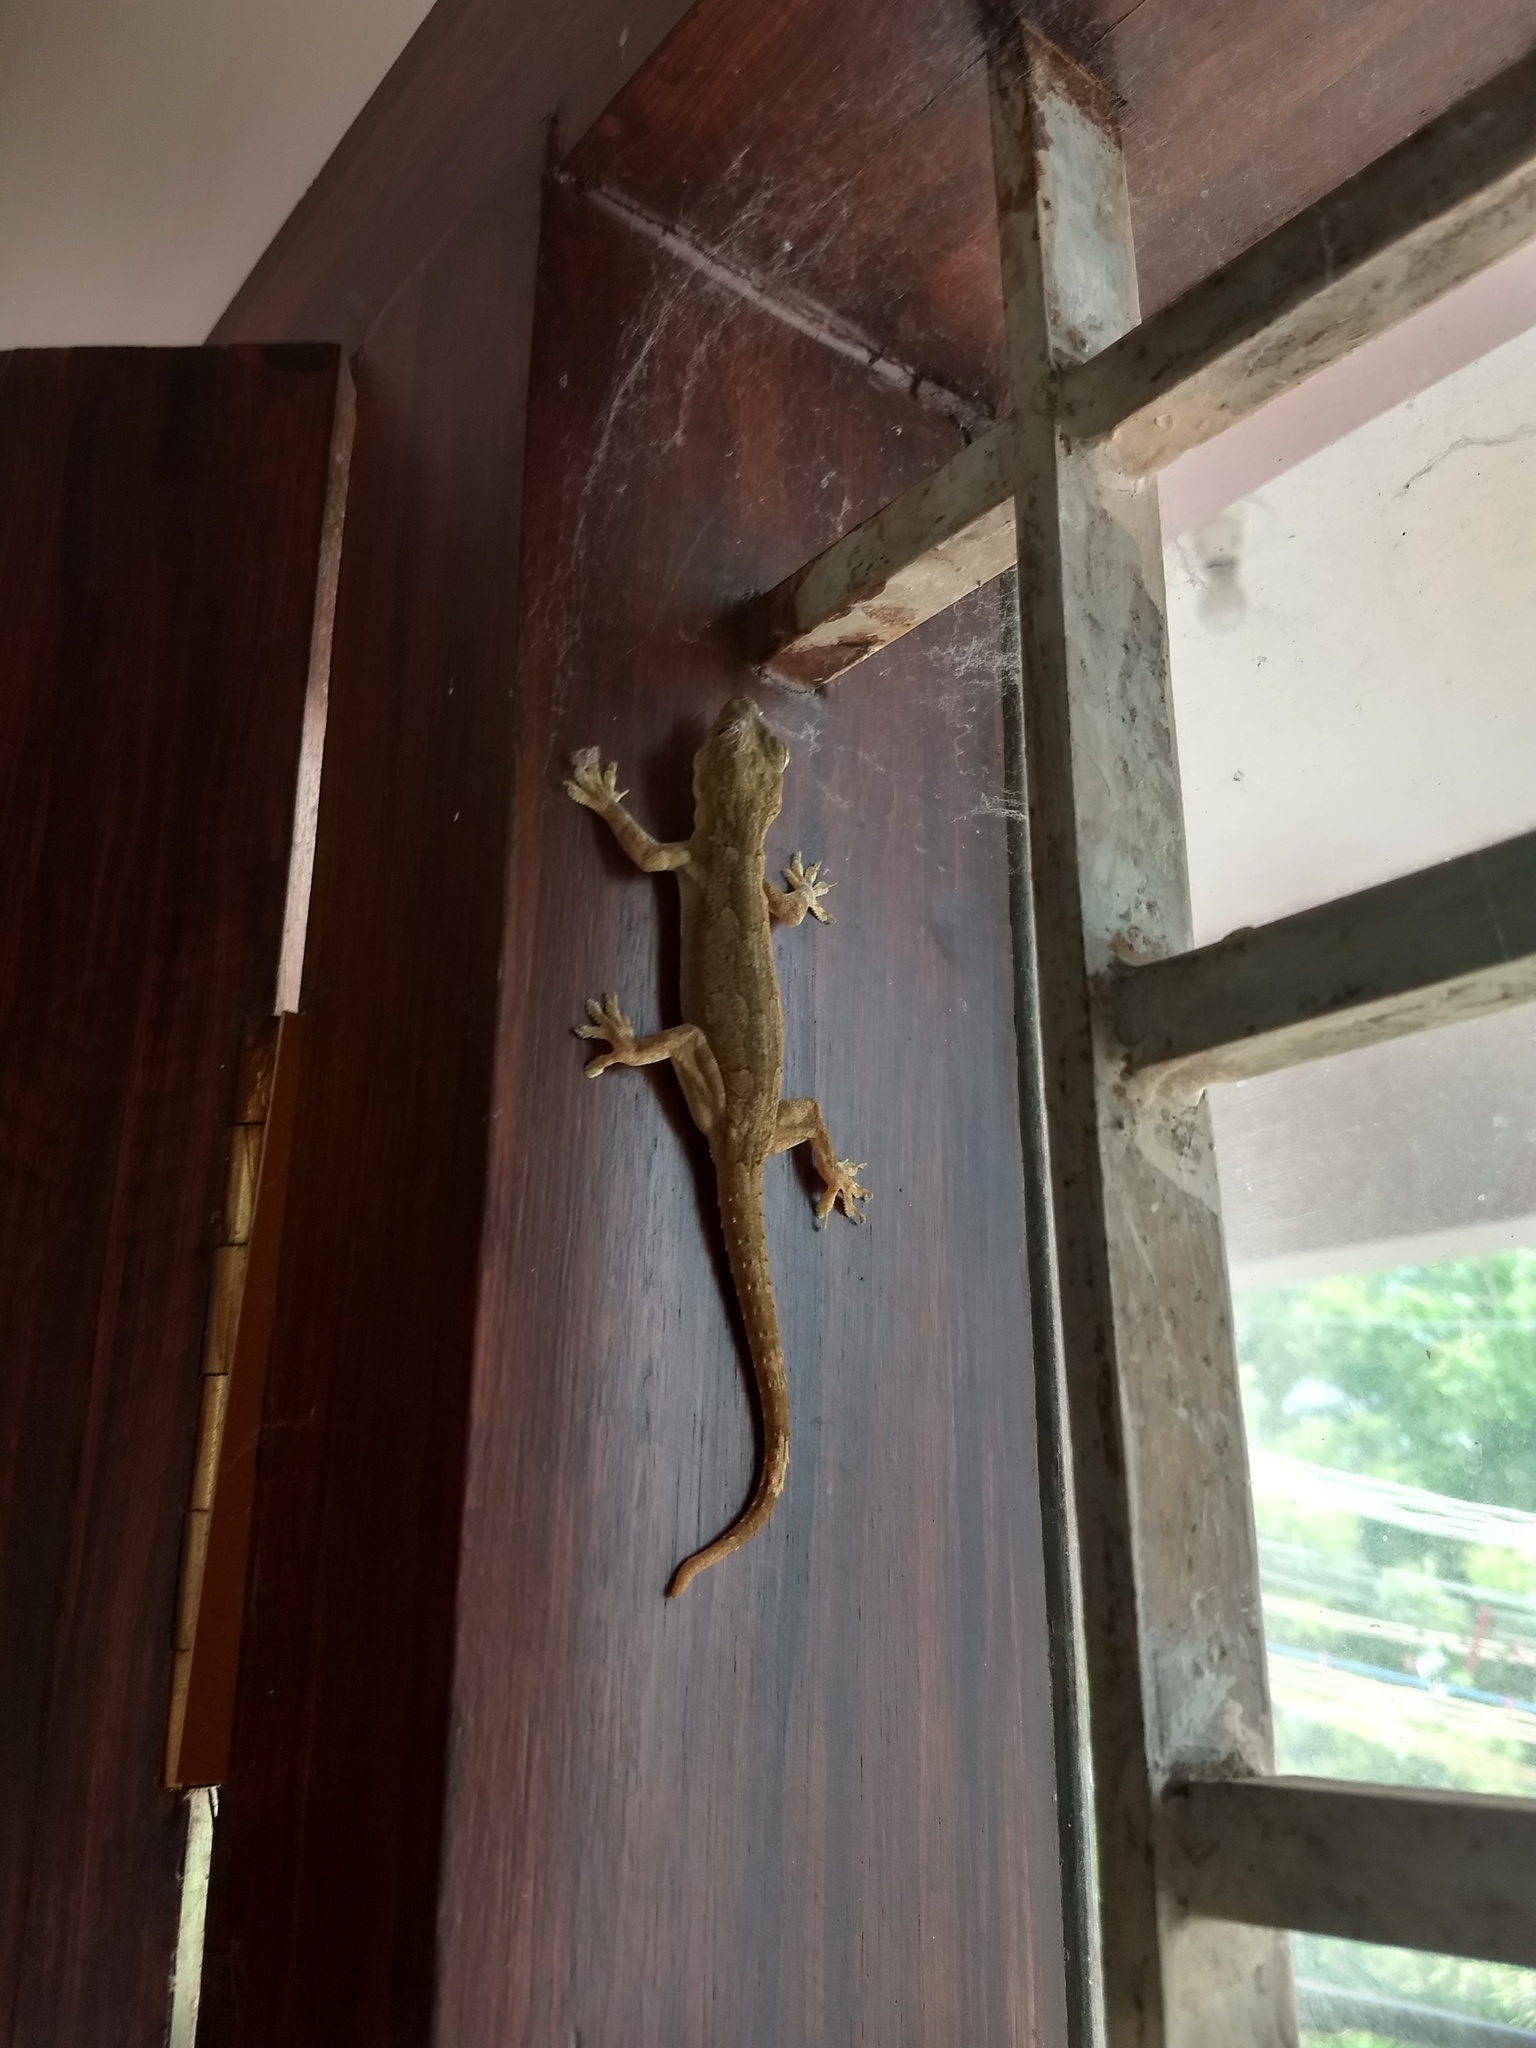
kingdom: Animalia
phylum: Chordata
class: Squamata
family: Gekkonidae
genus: Hemidactylus
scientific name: Hemidactylus leschenaultii
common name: Leschenault's leaf-toed gecko
